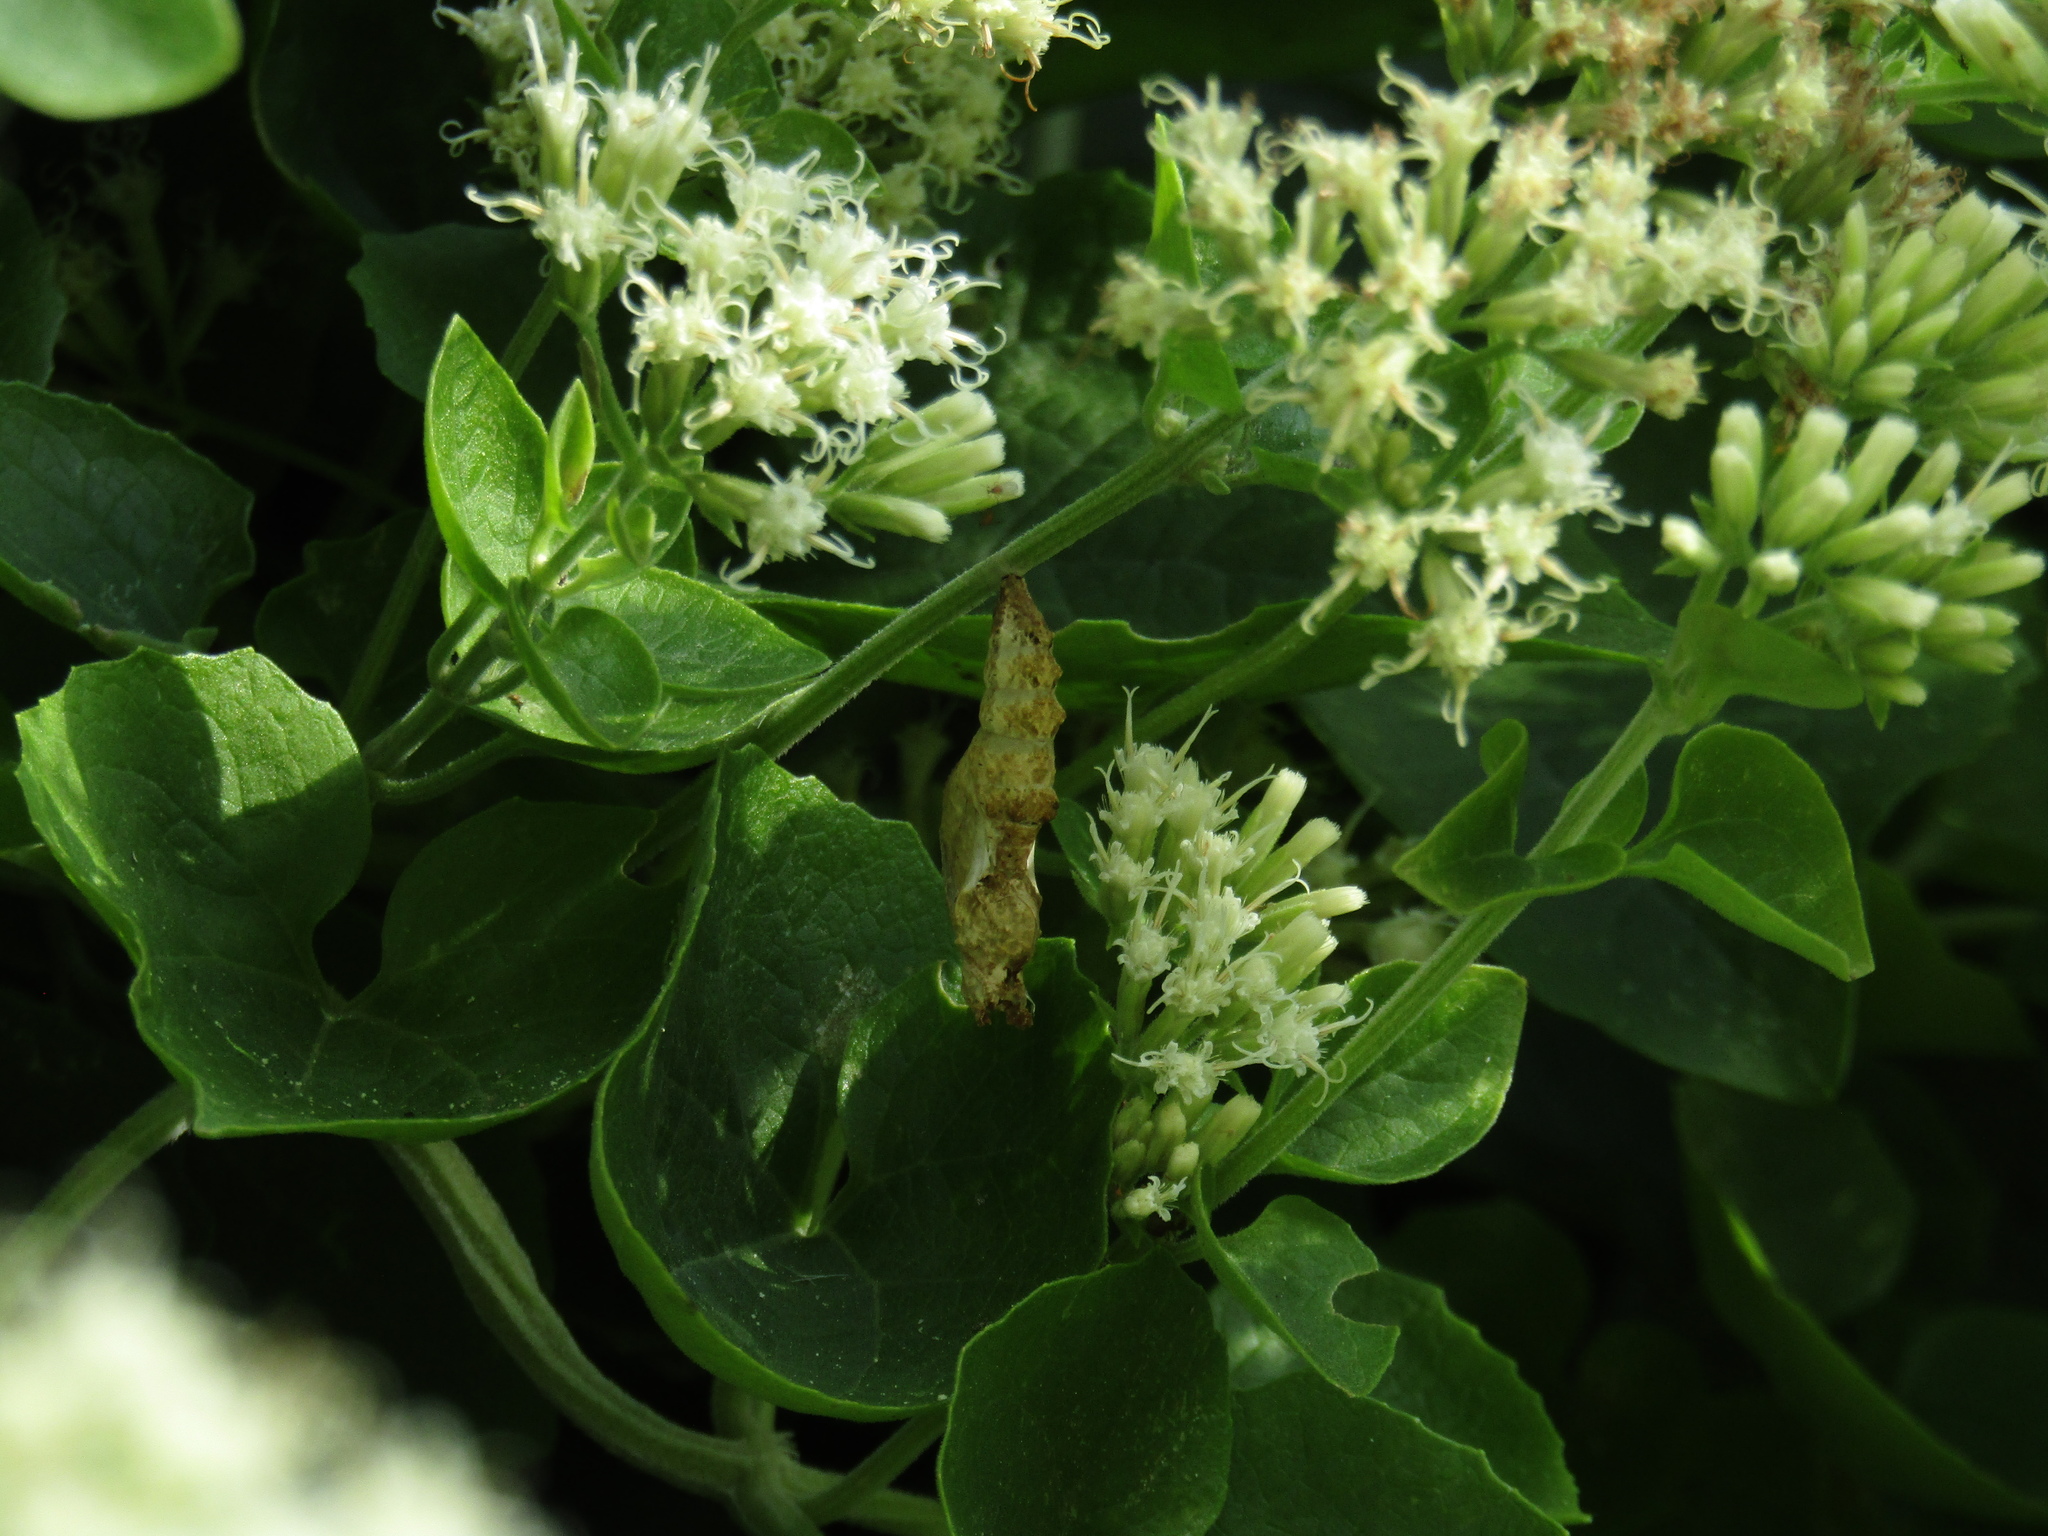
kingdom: Animalia
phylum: Arthropoda
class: Insecta
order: Lepidoptera
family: Nymphalidae
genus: Dione
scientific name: Dione vanillae
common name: Gulf fritillary
